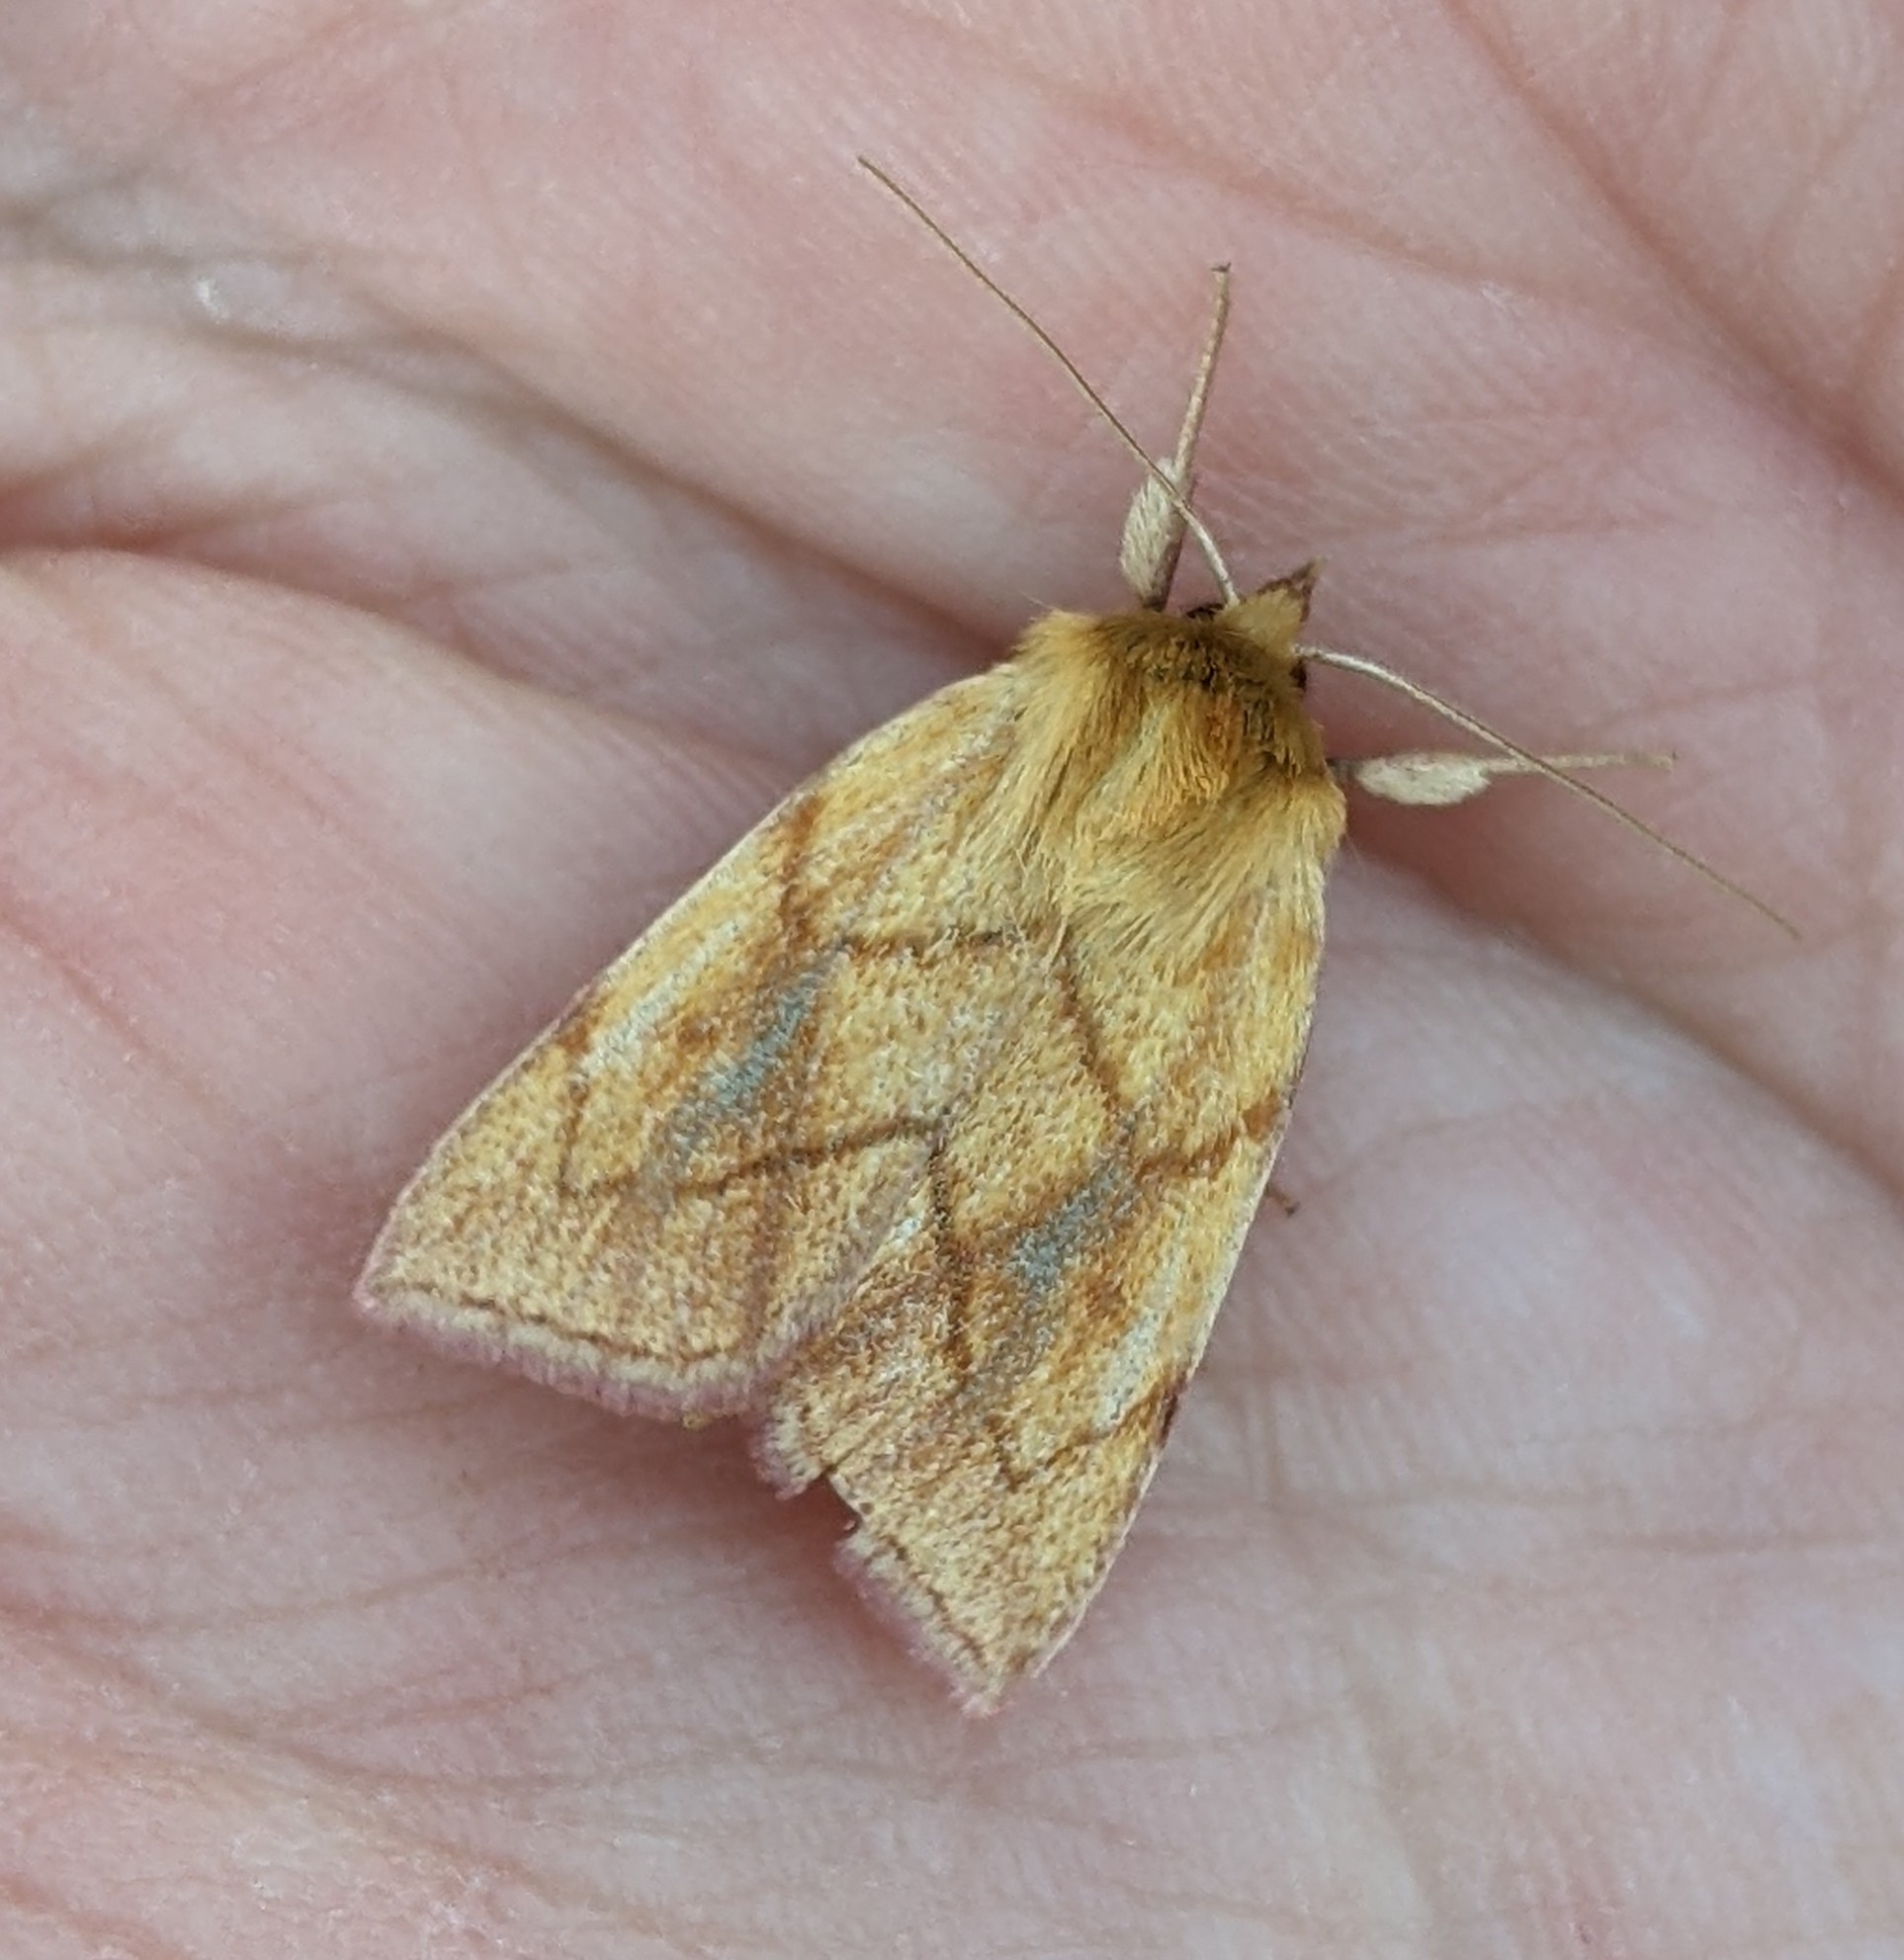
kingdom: Animalia
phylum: Arthropoda
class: Insecta
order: Lepidoptera
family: Noctuidae
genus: Zosteropoda
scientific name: Zosteropoda hirtipes
